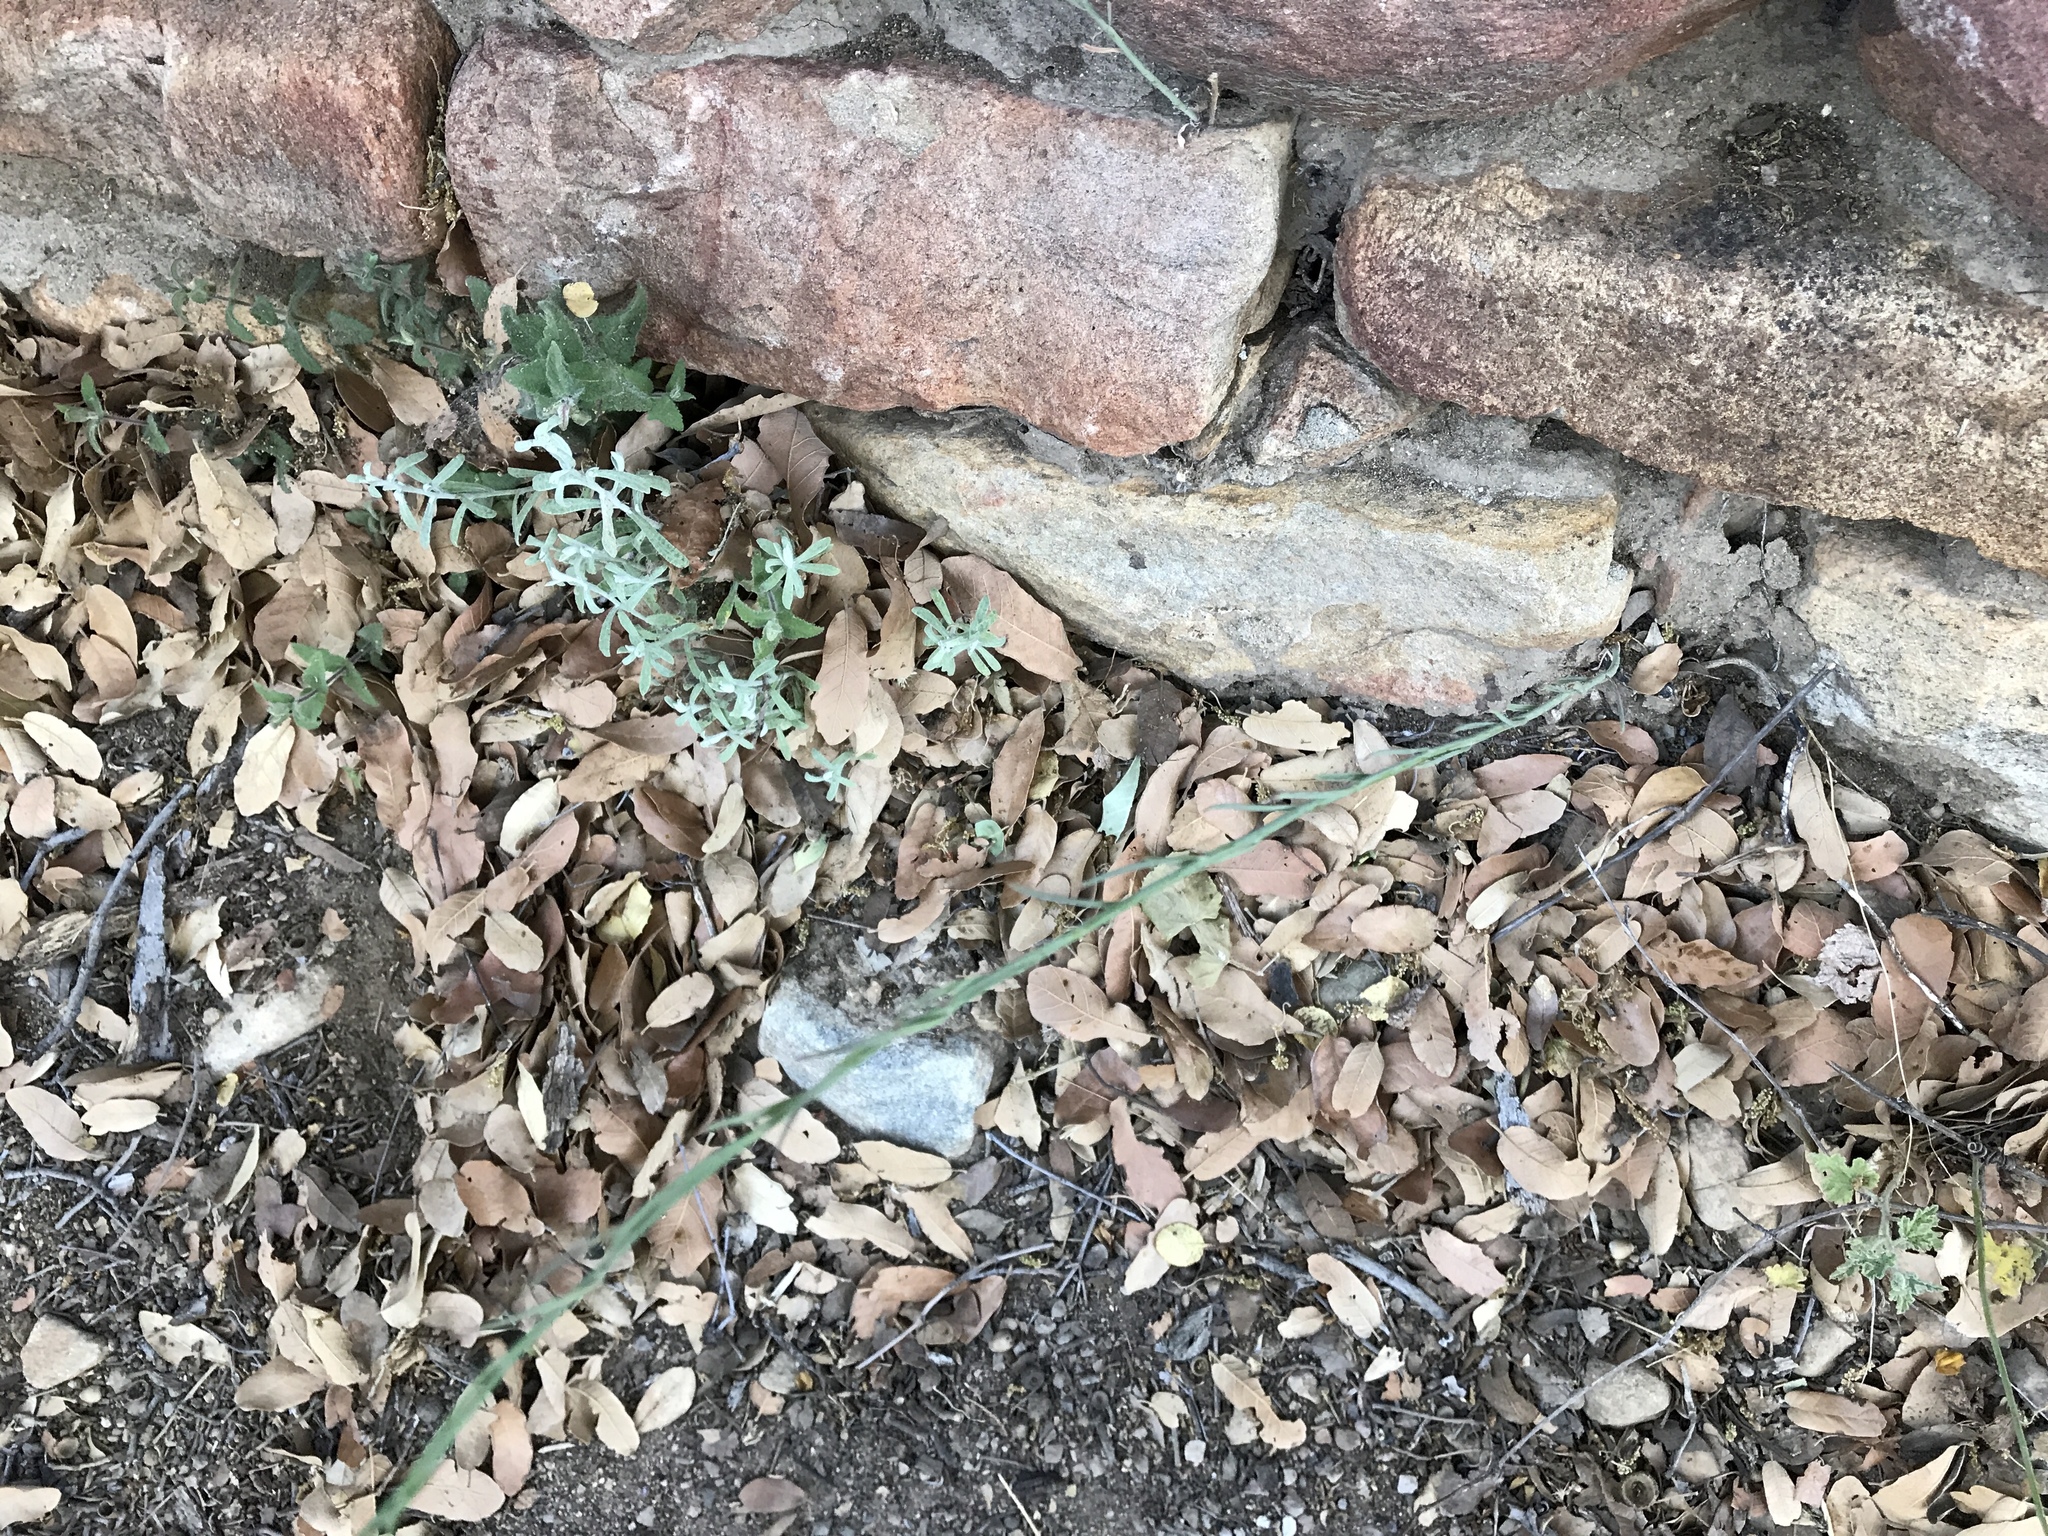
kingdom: Plantae
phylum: Tracheophyta
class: Magnoliopsida
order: Brassicales
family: Brassicaceae
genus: Hesperidanthus
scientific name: Hesperidanthus linearifolius
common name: Slim-leaf plains mustard
